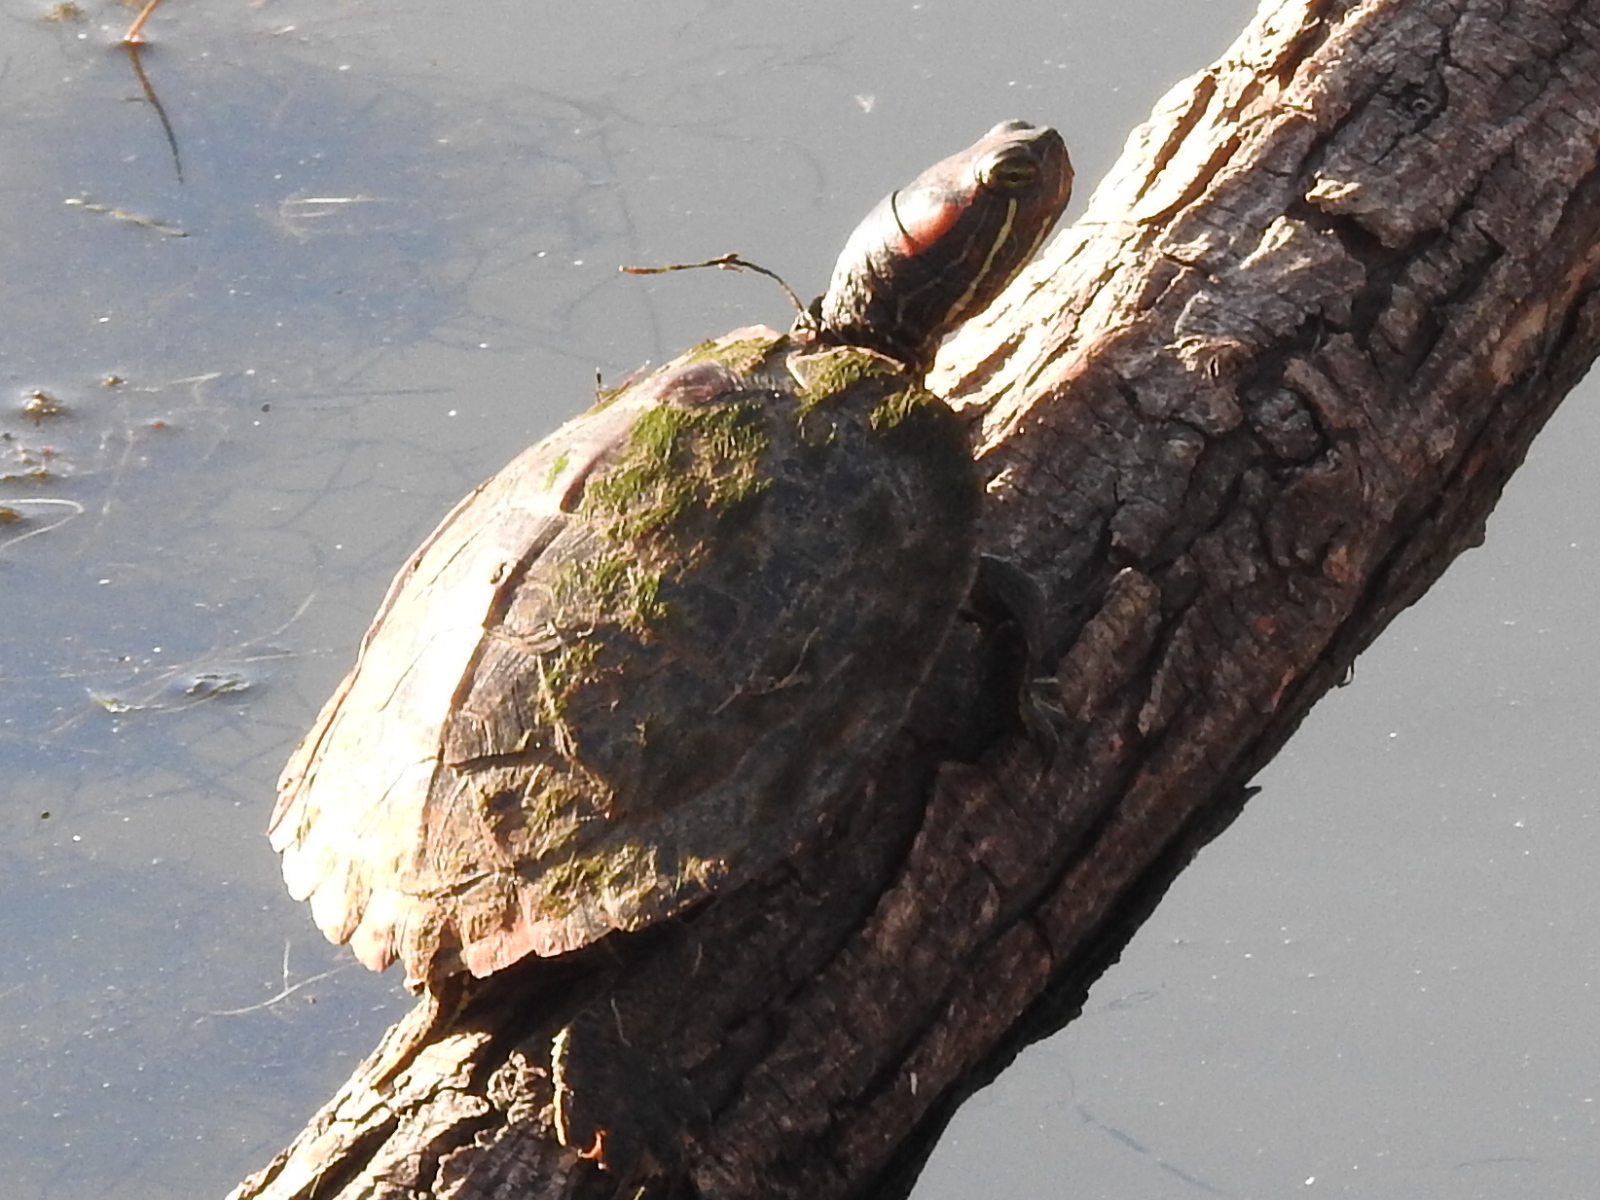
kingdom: Animalia
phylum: Chordata
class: Testudines
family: Emydidae
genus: Trachemys
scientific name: Trachemys scripta
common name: Slider
